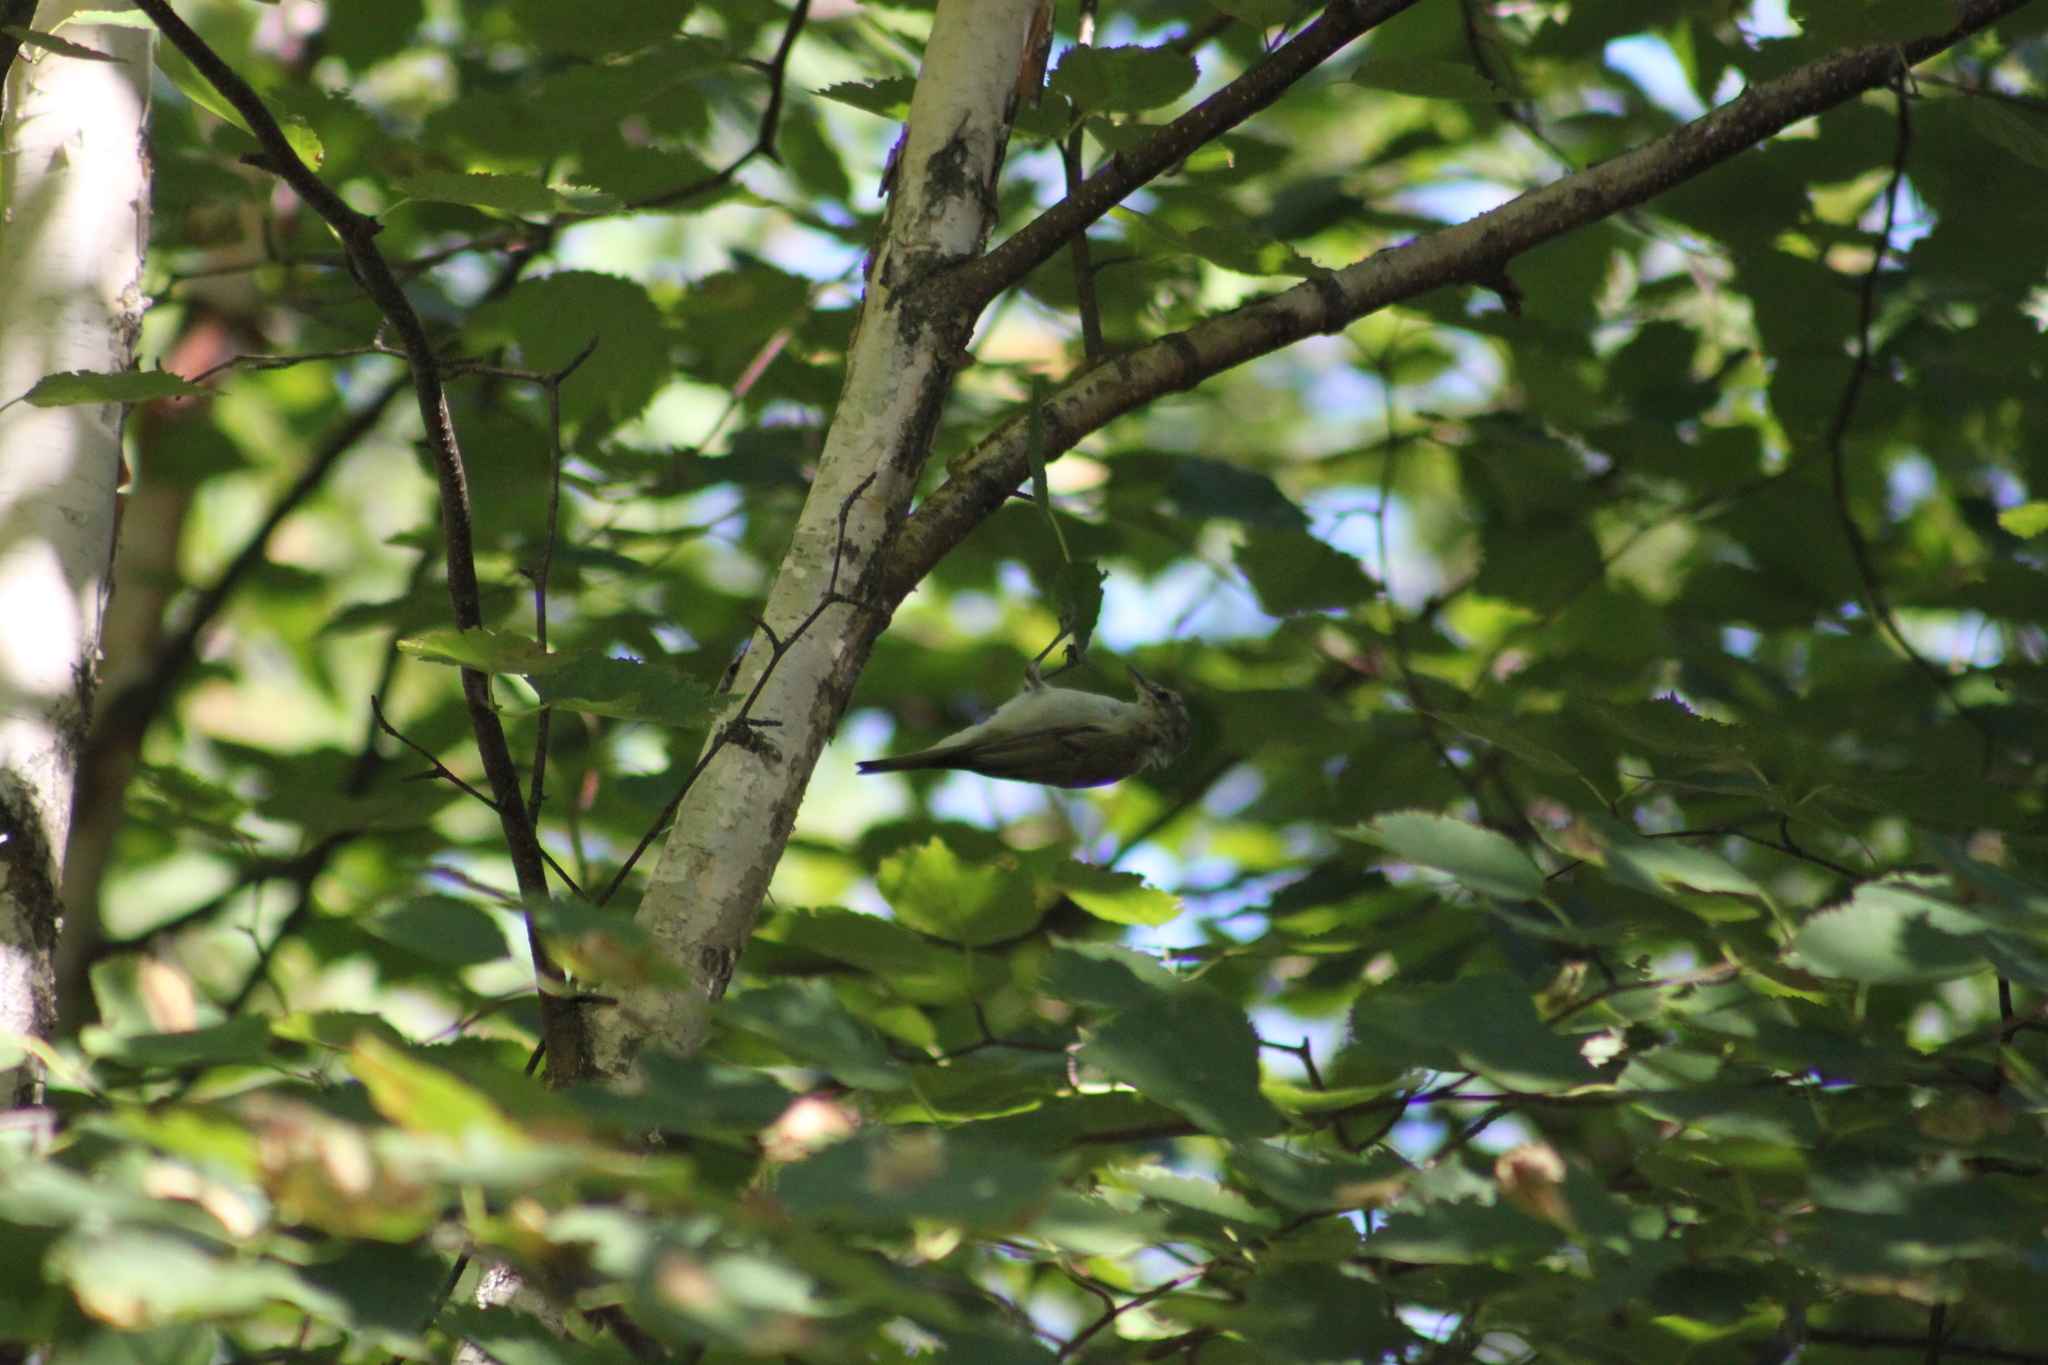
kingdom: Animalia
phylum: Chordata
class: Aves
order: Passeriformes
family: Vireonidae
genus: Vireo
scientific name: Vireo olivaceus
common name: Red-eyed vireo
